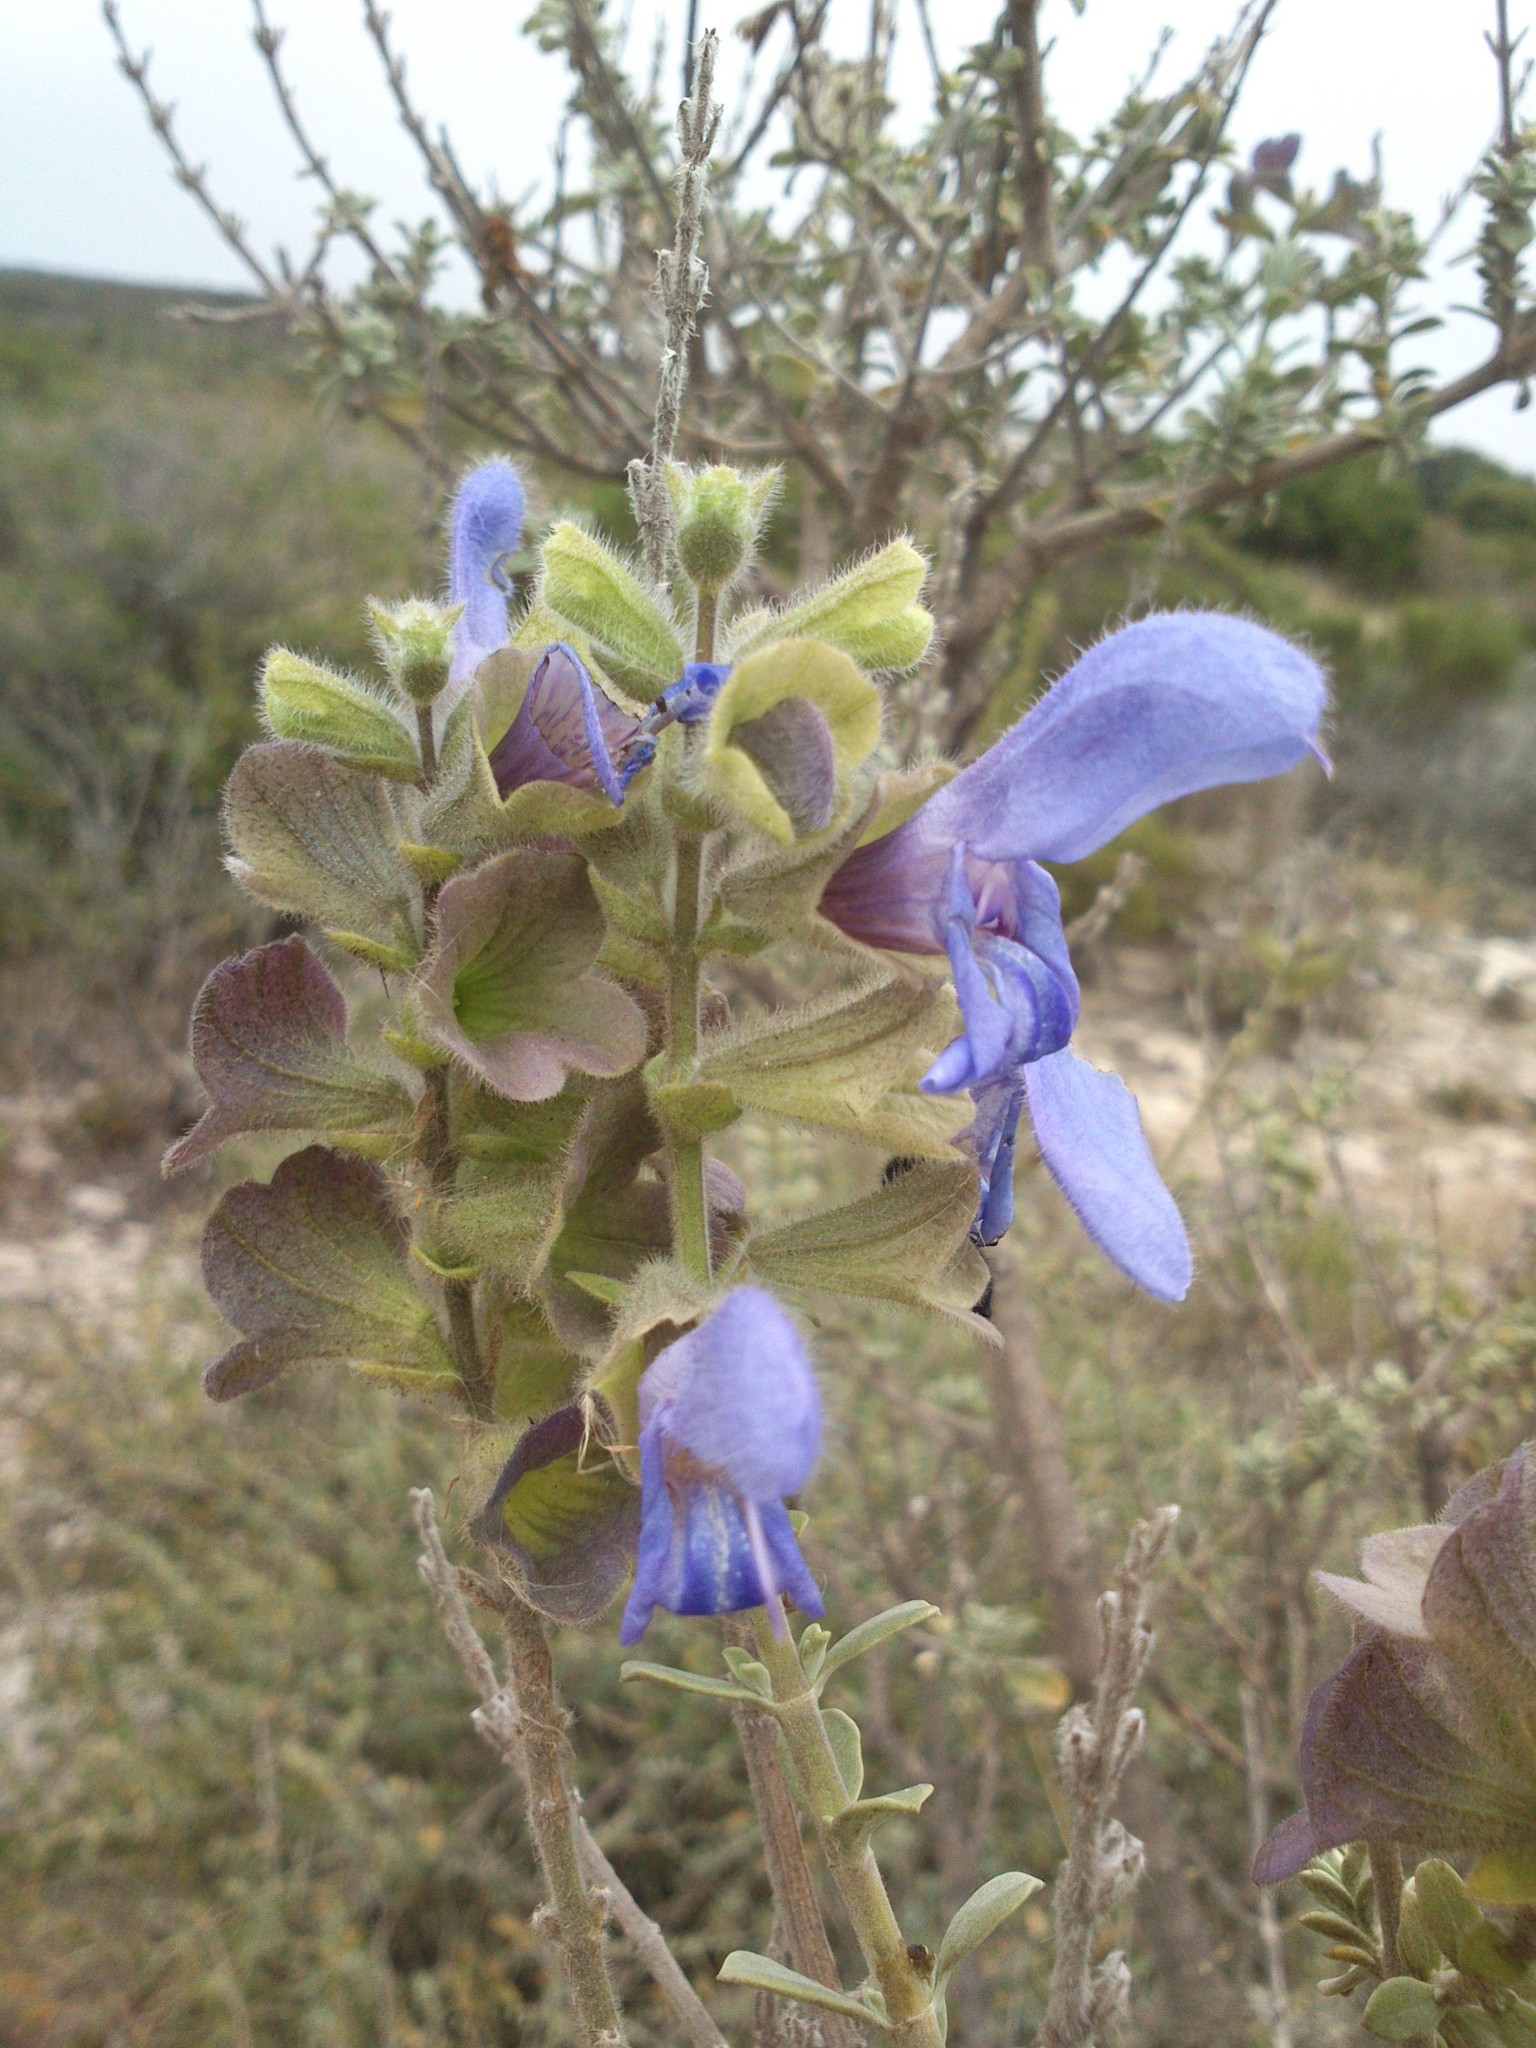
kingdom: Plantae
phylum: Tracheophyta
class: Magnoliopsida
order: Lamiales
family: Lamiaceae
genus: Salvia
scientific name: Salvia africana
